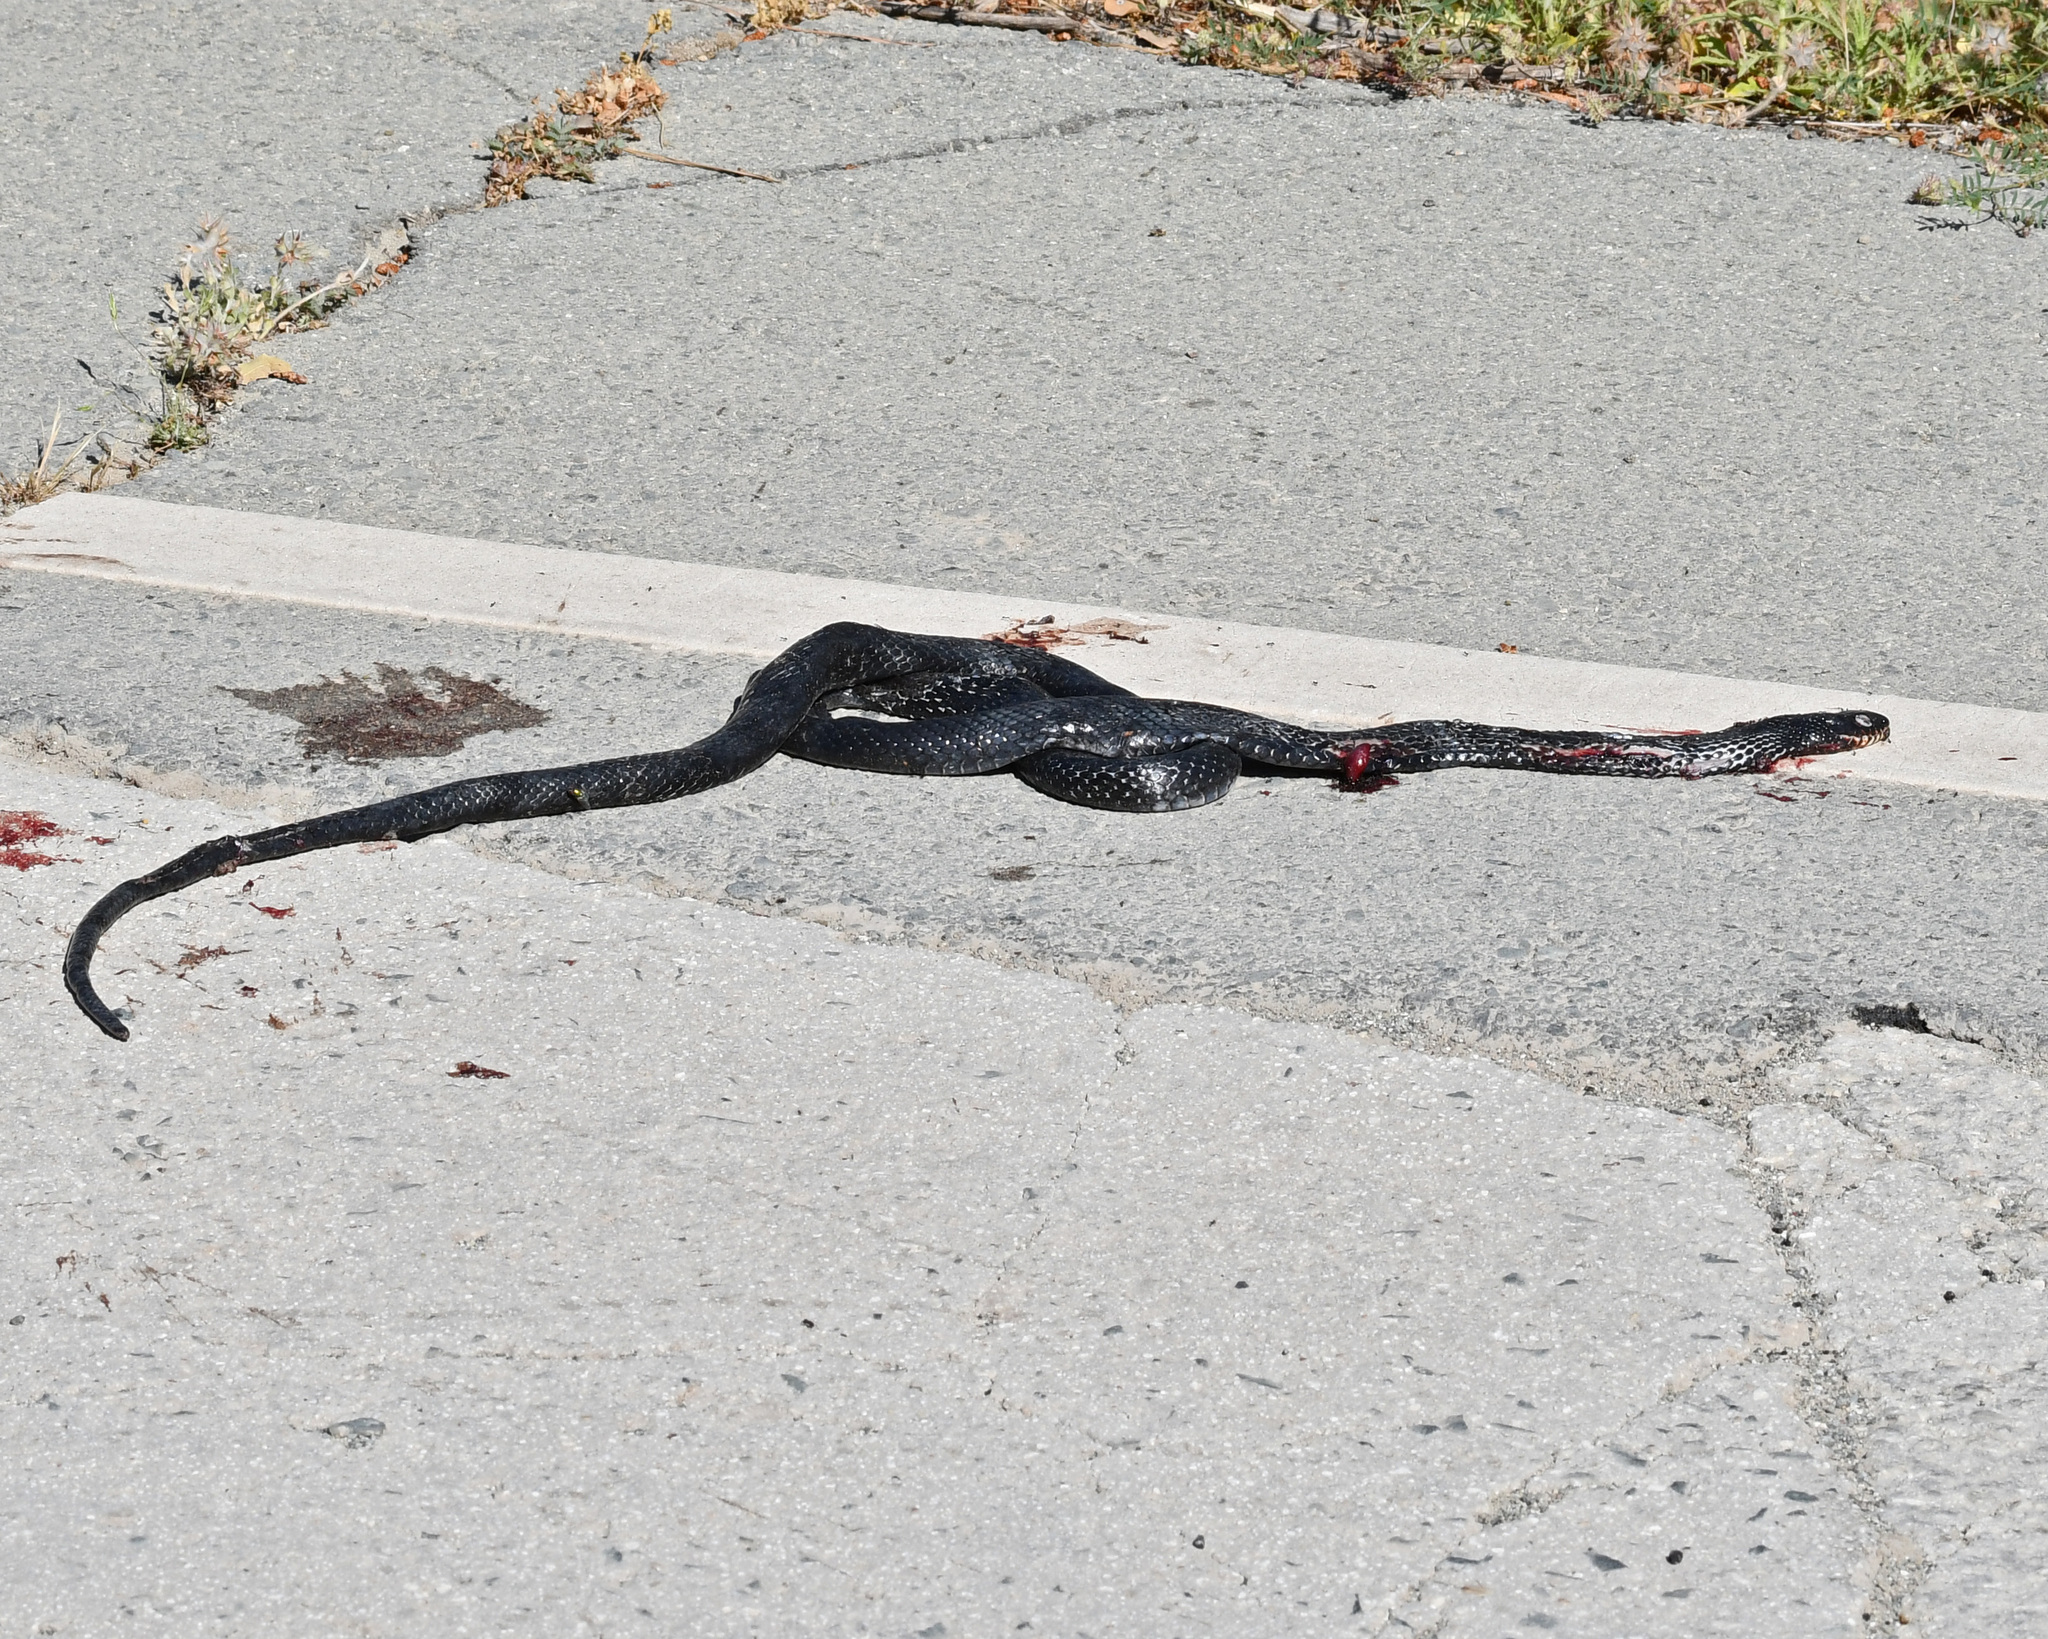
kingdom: Animalia
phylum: Chordata
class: Squamata
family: Colubridae
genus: Dolichophis
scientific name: Dolichophis jugularis
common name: Large whip snake
